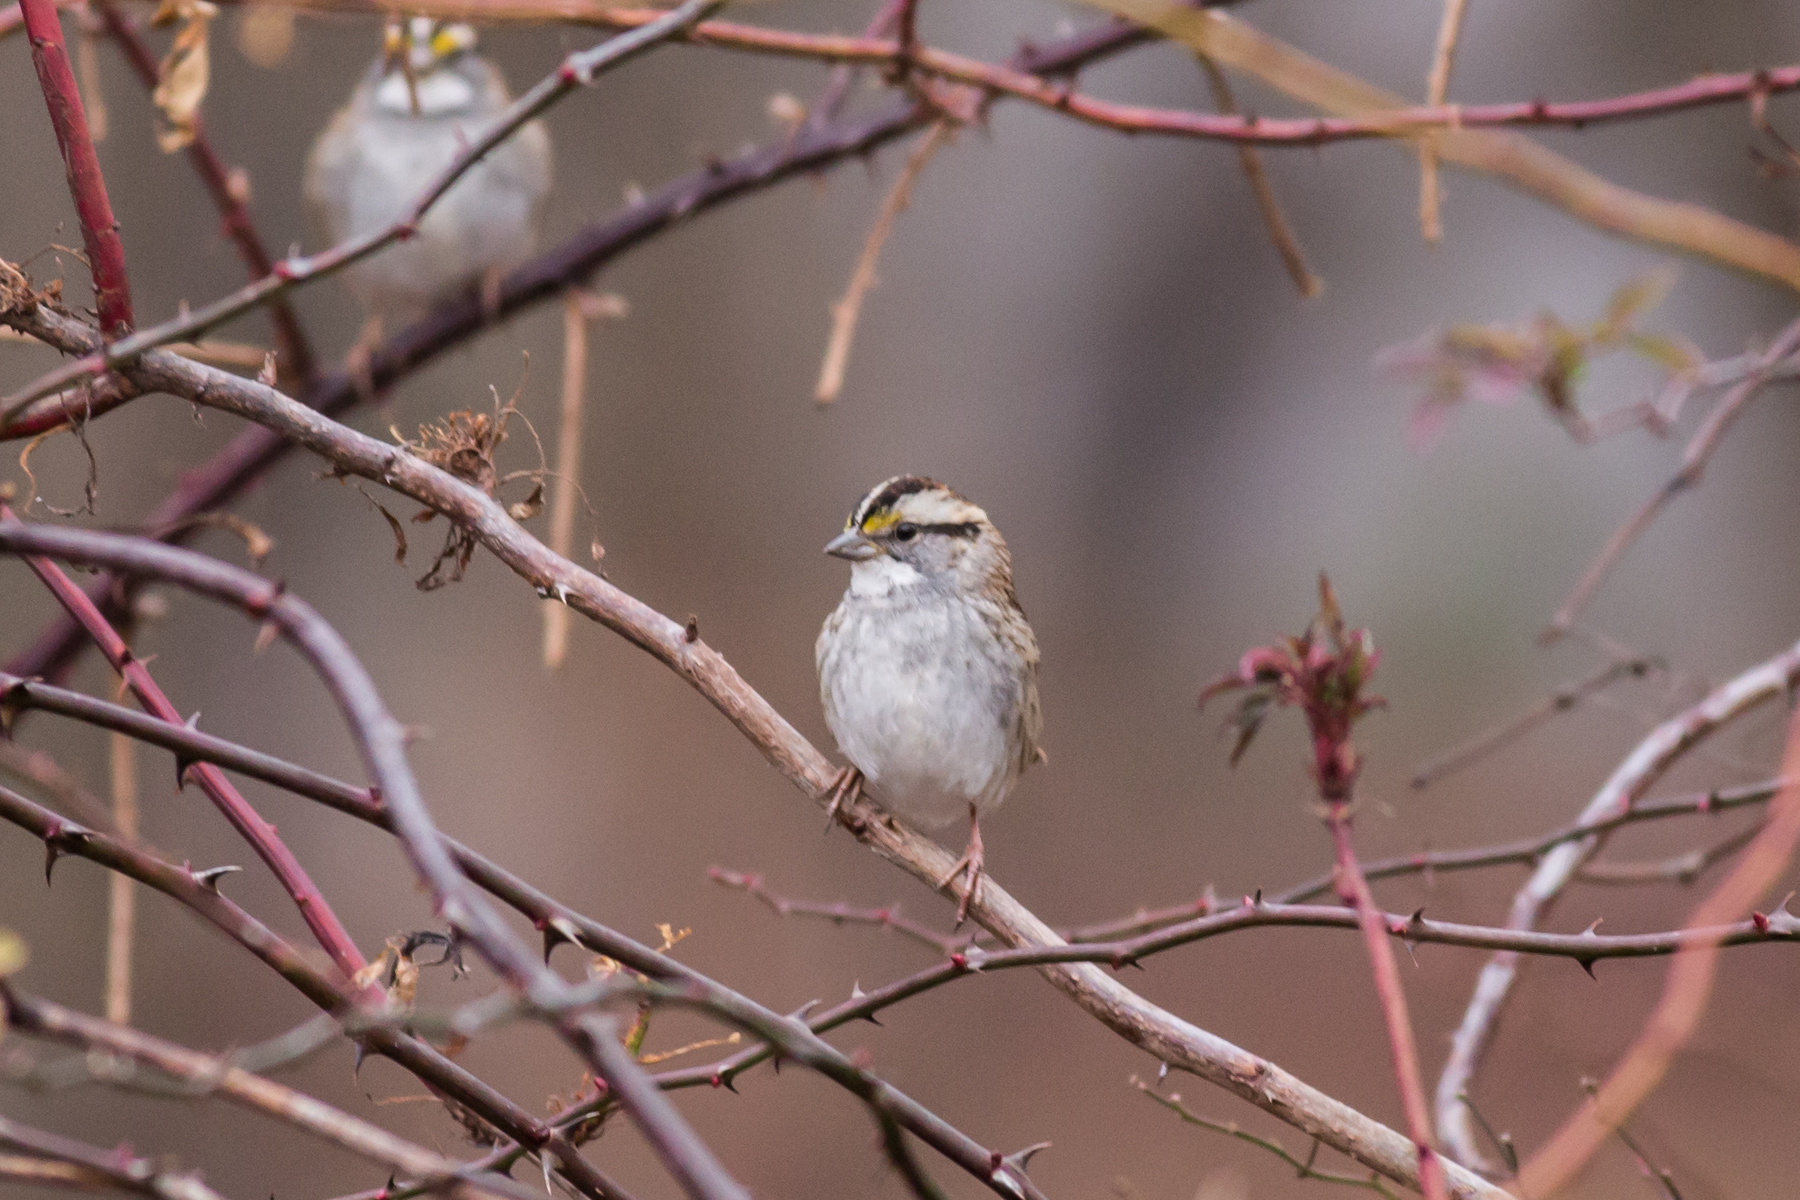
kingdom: Animalia
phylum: Chordata
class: Aves
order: Passeriformes
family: Passerellidae
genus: Zonotrichia
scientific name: Zonotrichia albicollis
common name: White-throated sparrow
